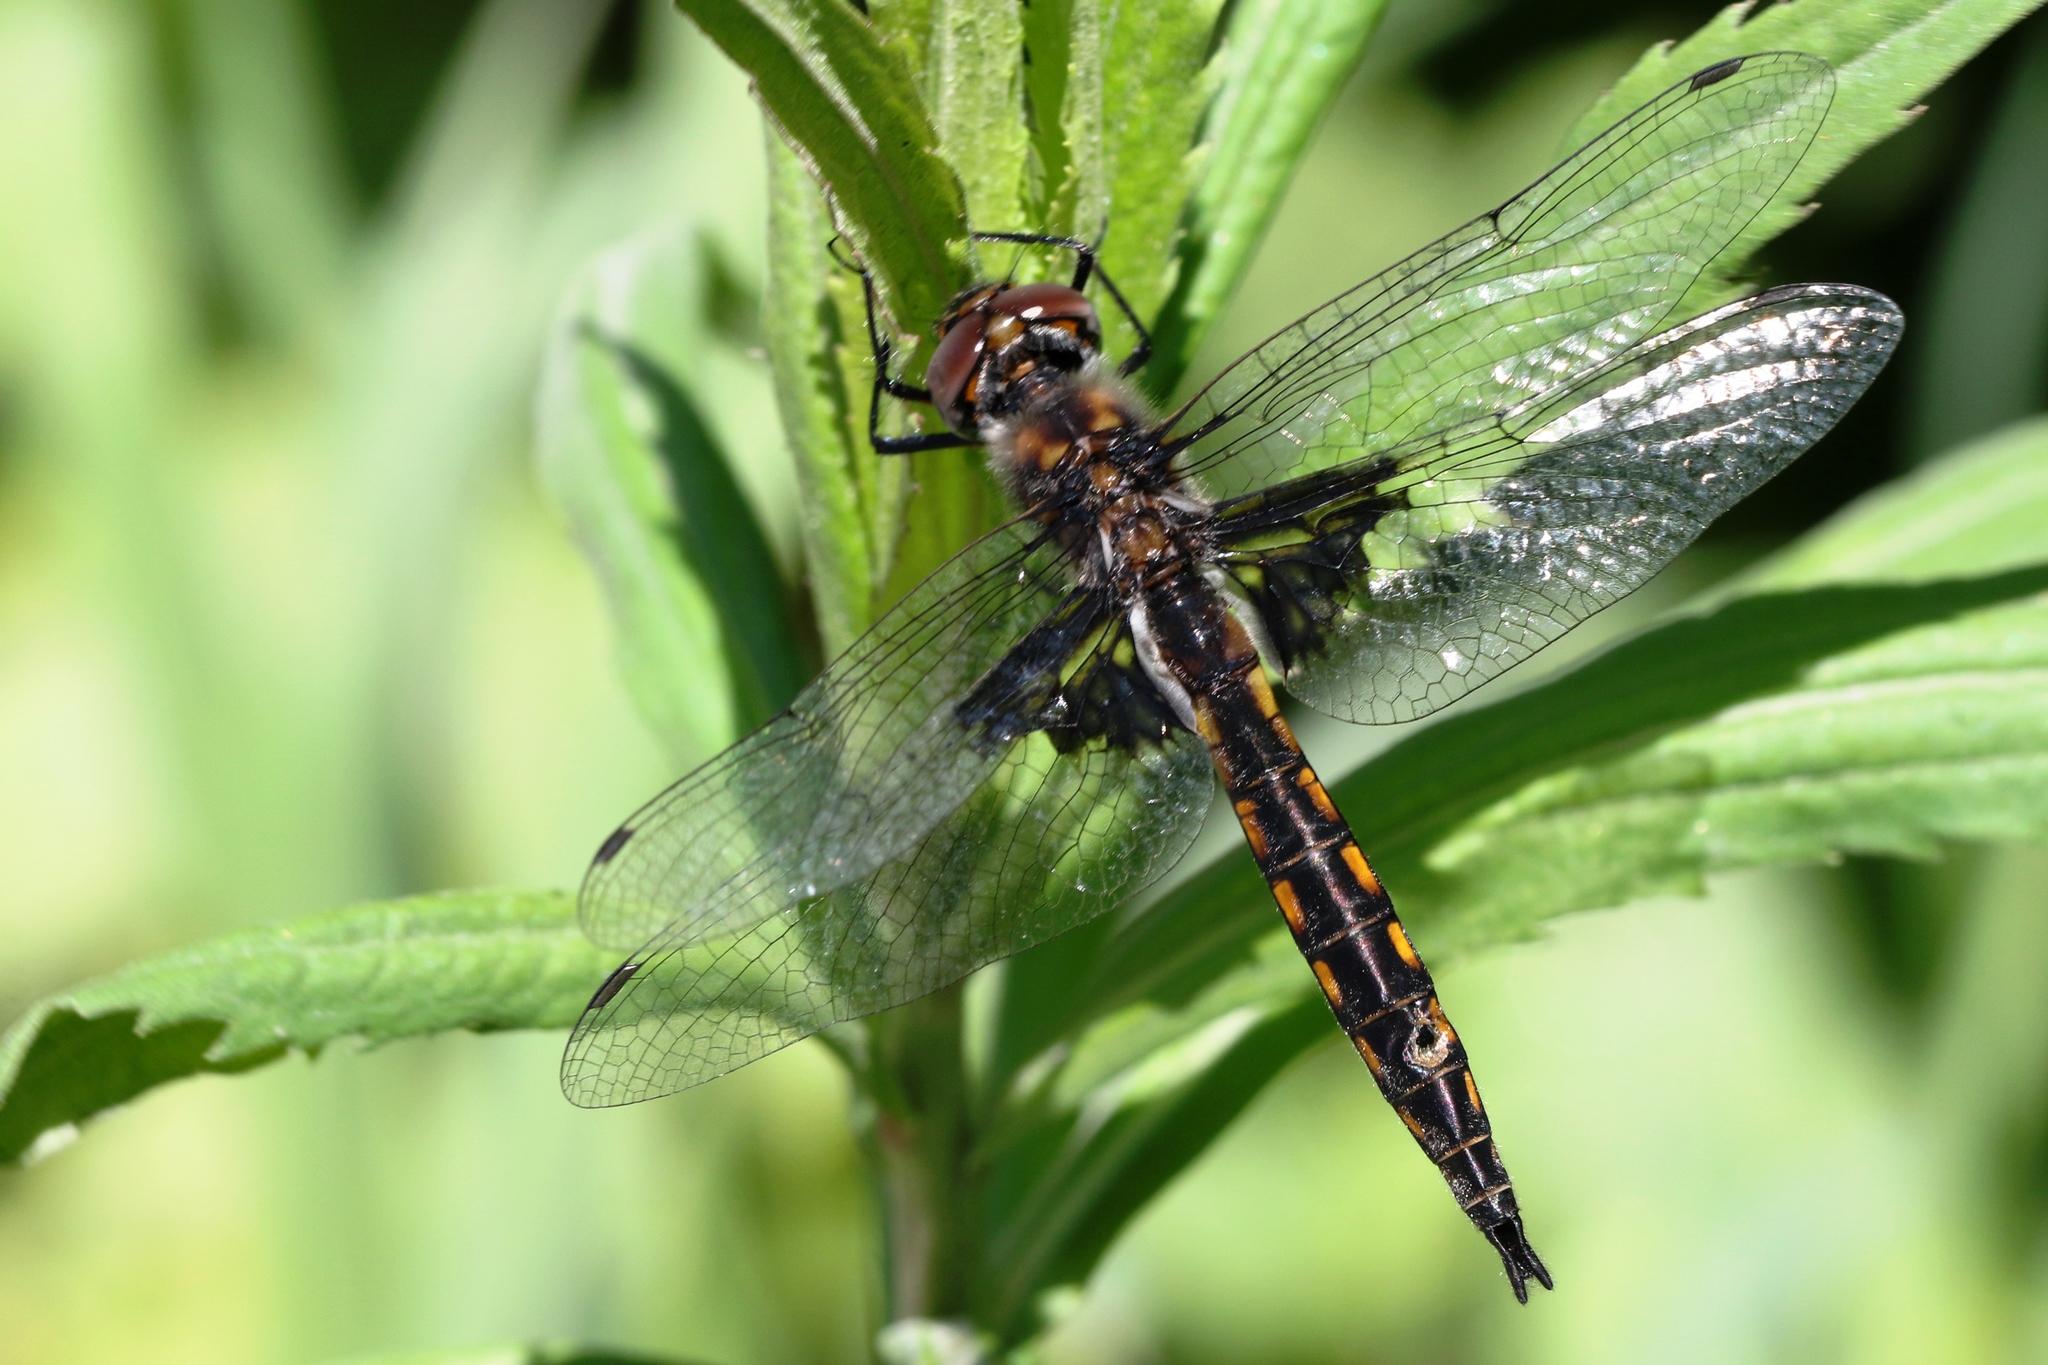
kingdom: Animalia
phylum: Arthropoda
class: Insecta
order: Odonata
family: Corduliidae
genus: Epitheca
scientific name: Epitheca cynosura
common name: Common baskettail
